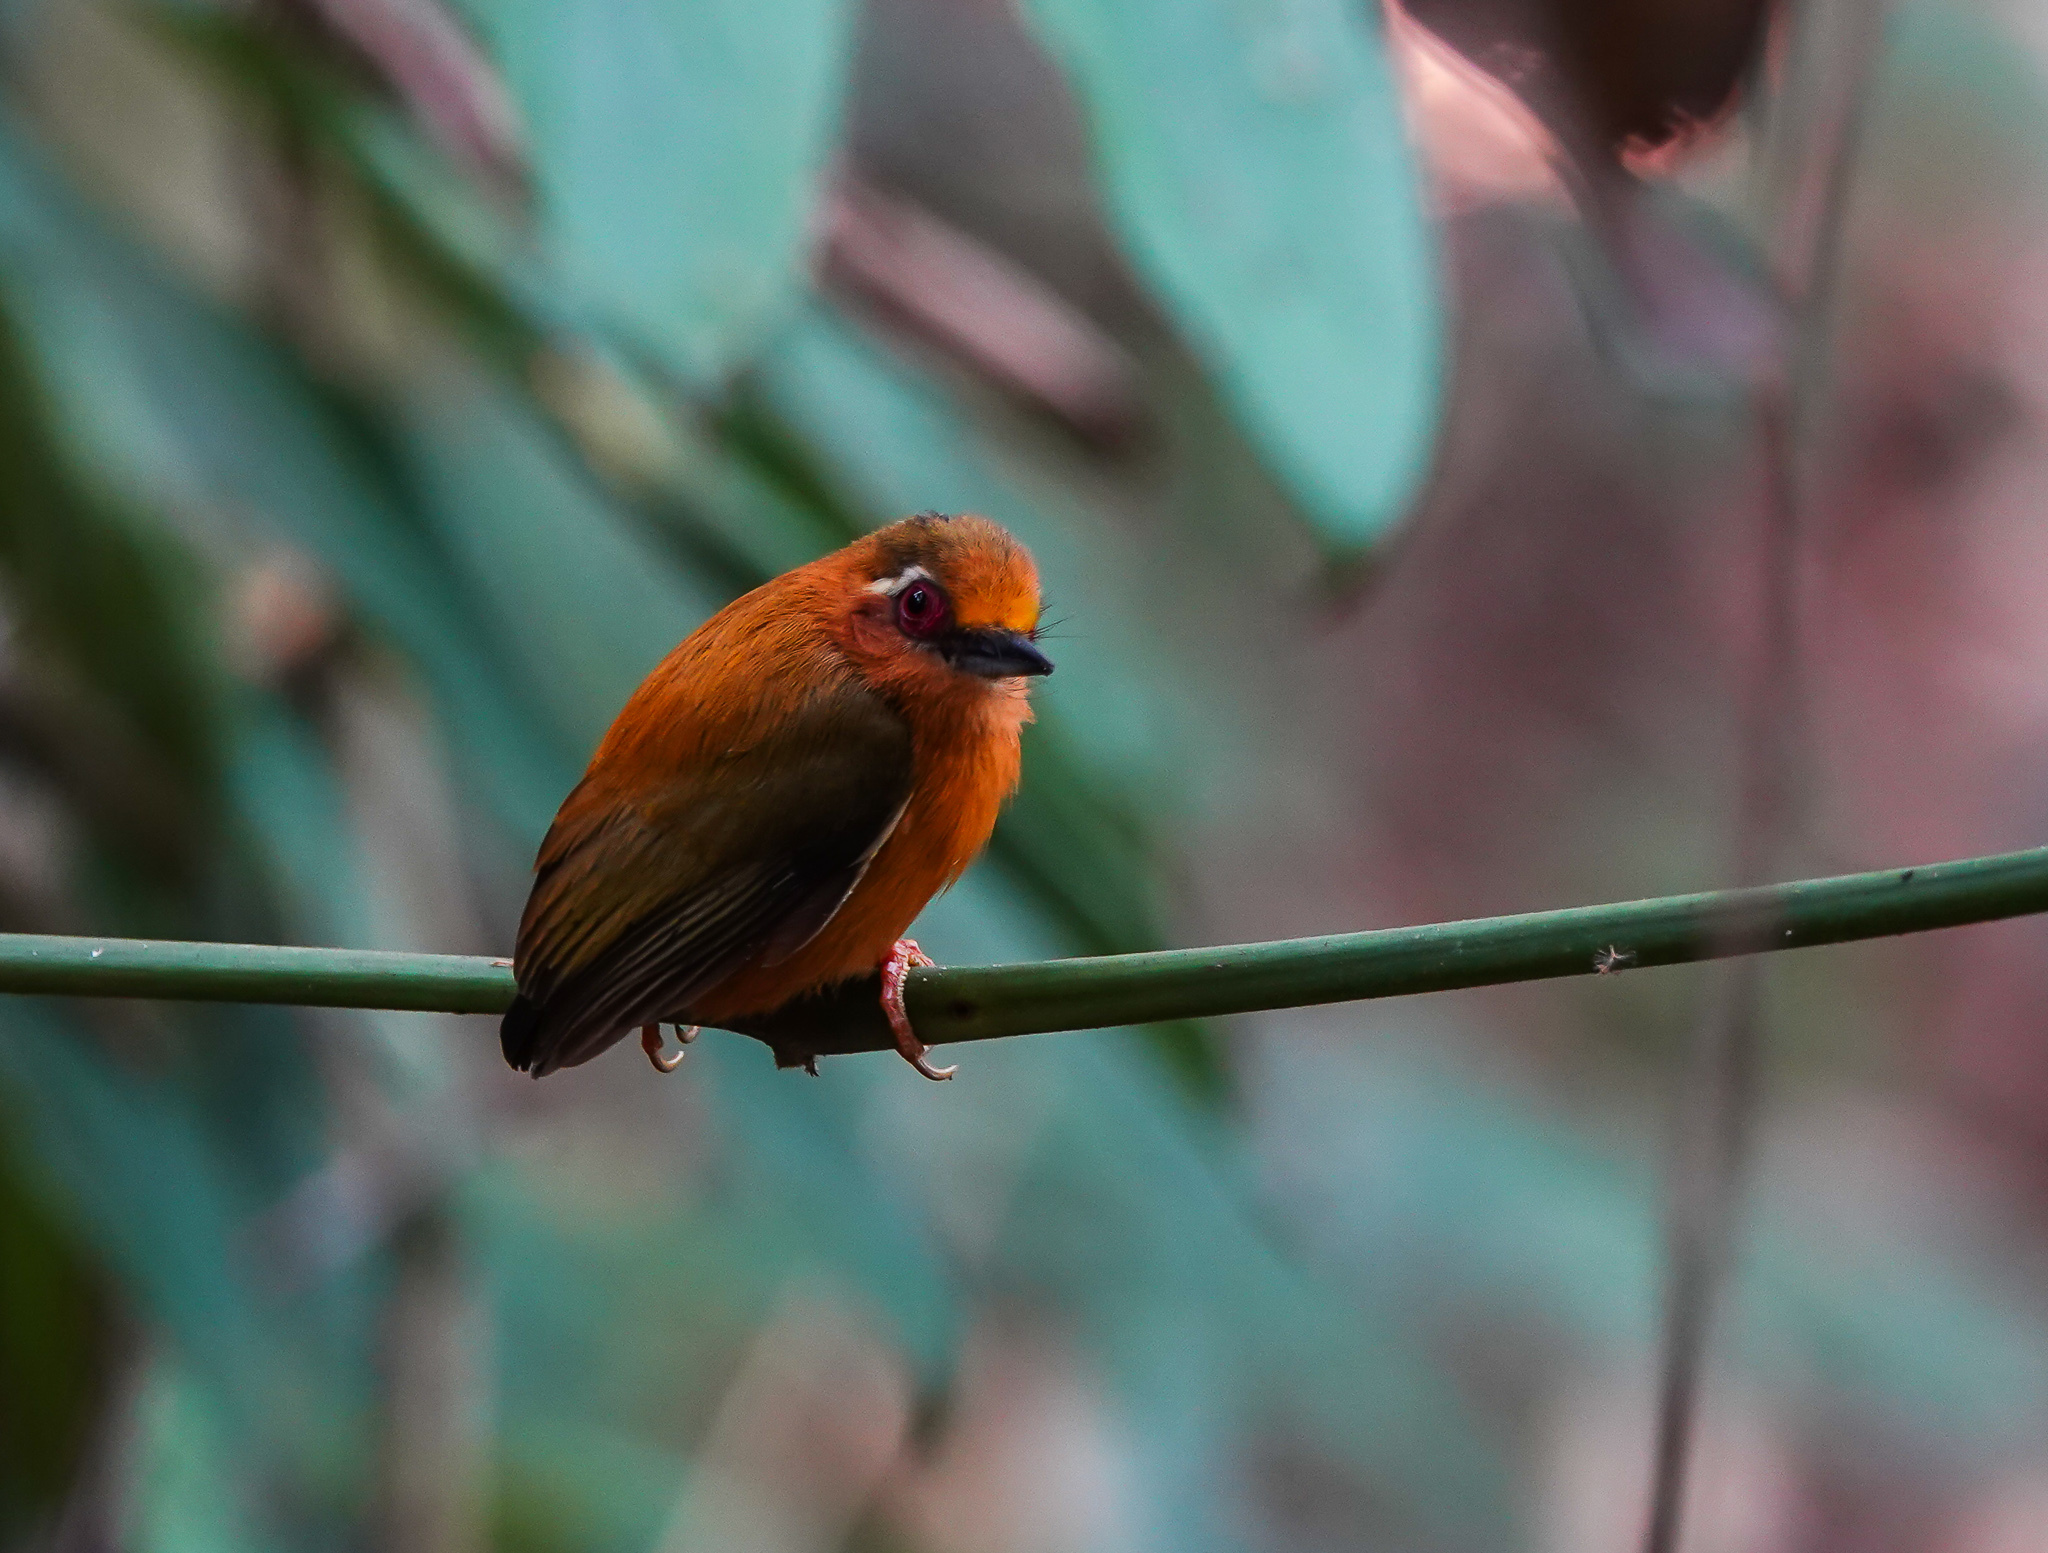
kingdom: Animalia
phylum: Chordata
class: Aves
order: Piciformes
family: Picidae
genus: Sasia
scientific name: Sasia ochracea
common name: White-browed piculet
